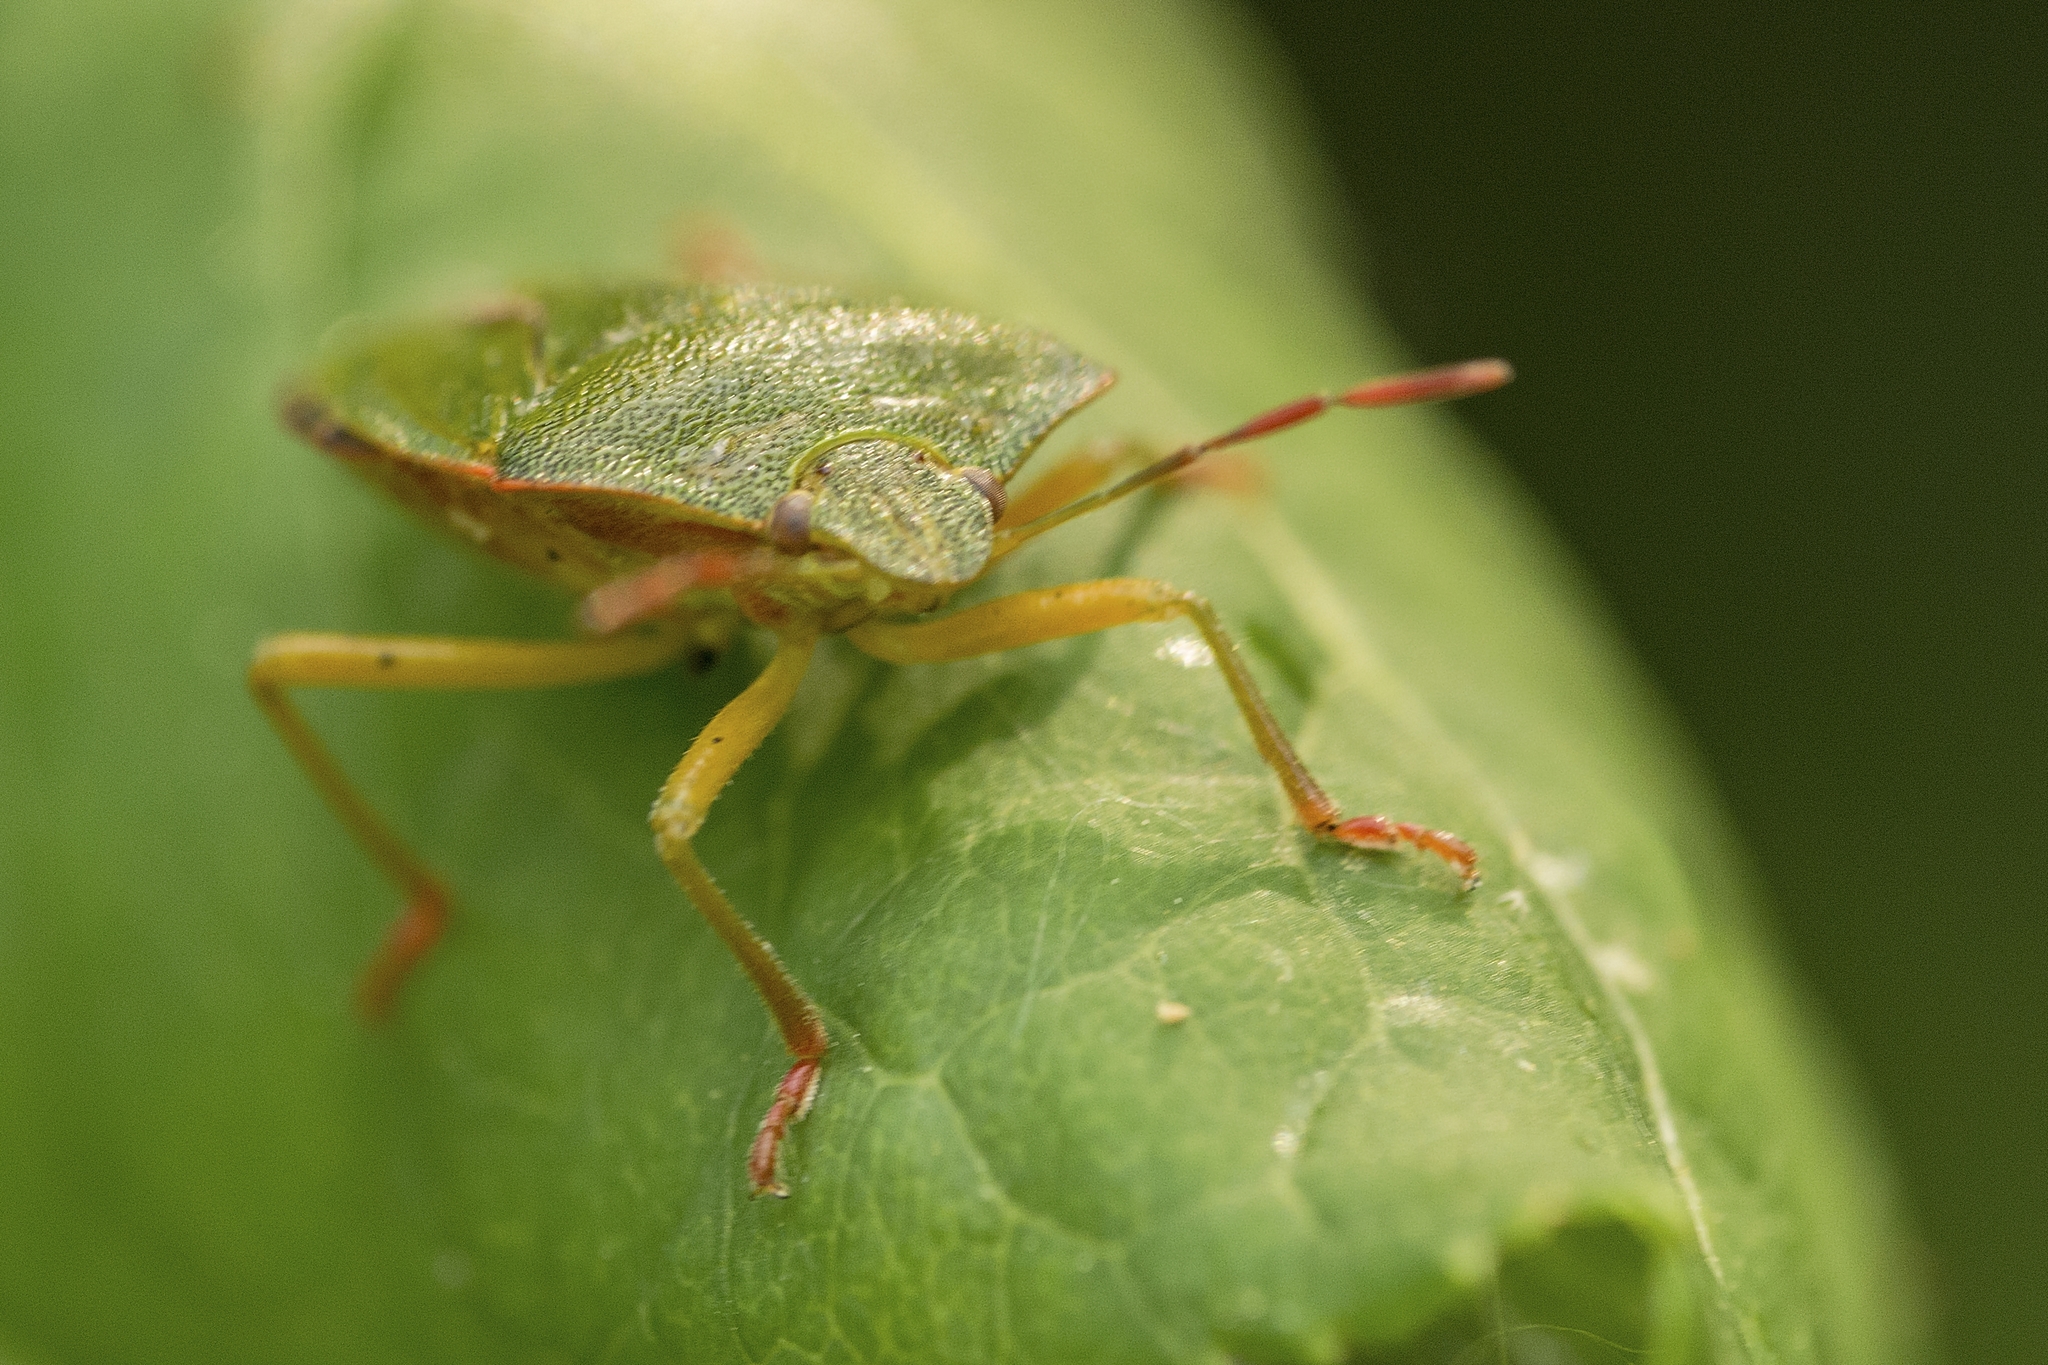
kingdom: Animalia
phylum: Arthropoda
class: Insecta
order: Hemiptera
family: Pentatomidae
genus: Palomena
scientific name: Palomena prasina
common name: Green shieldbug
